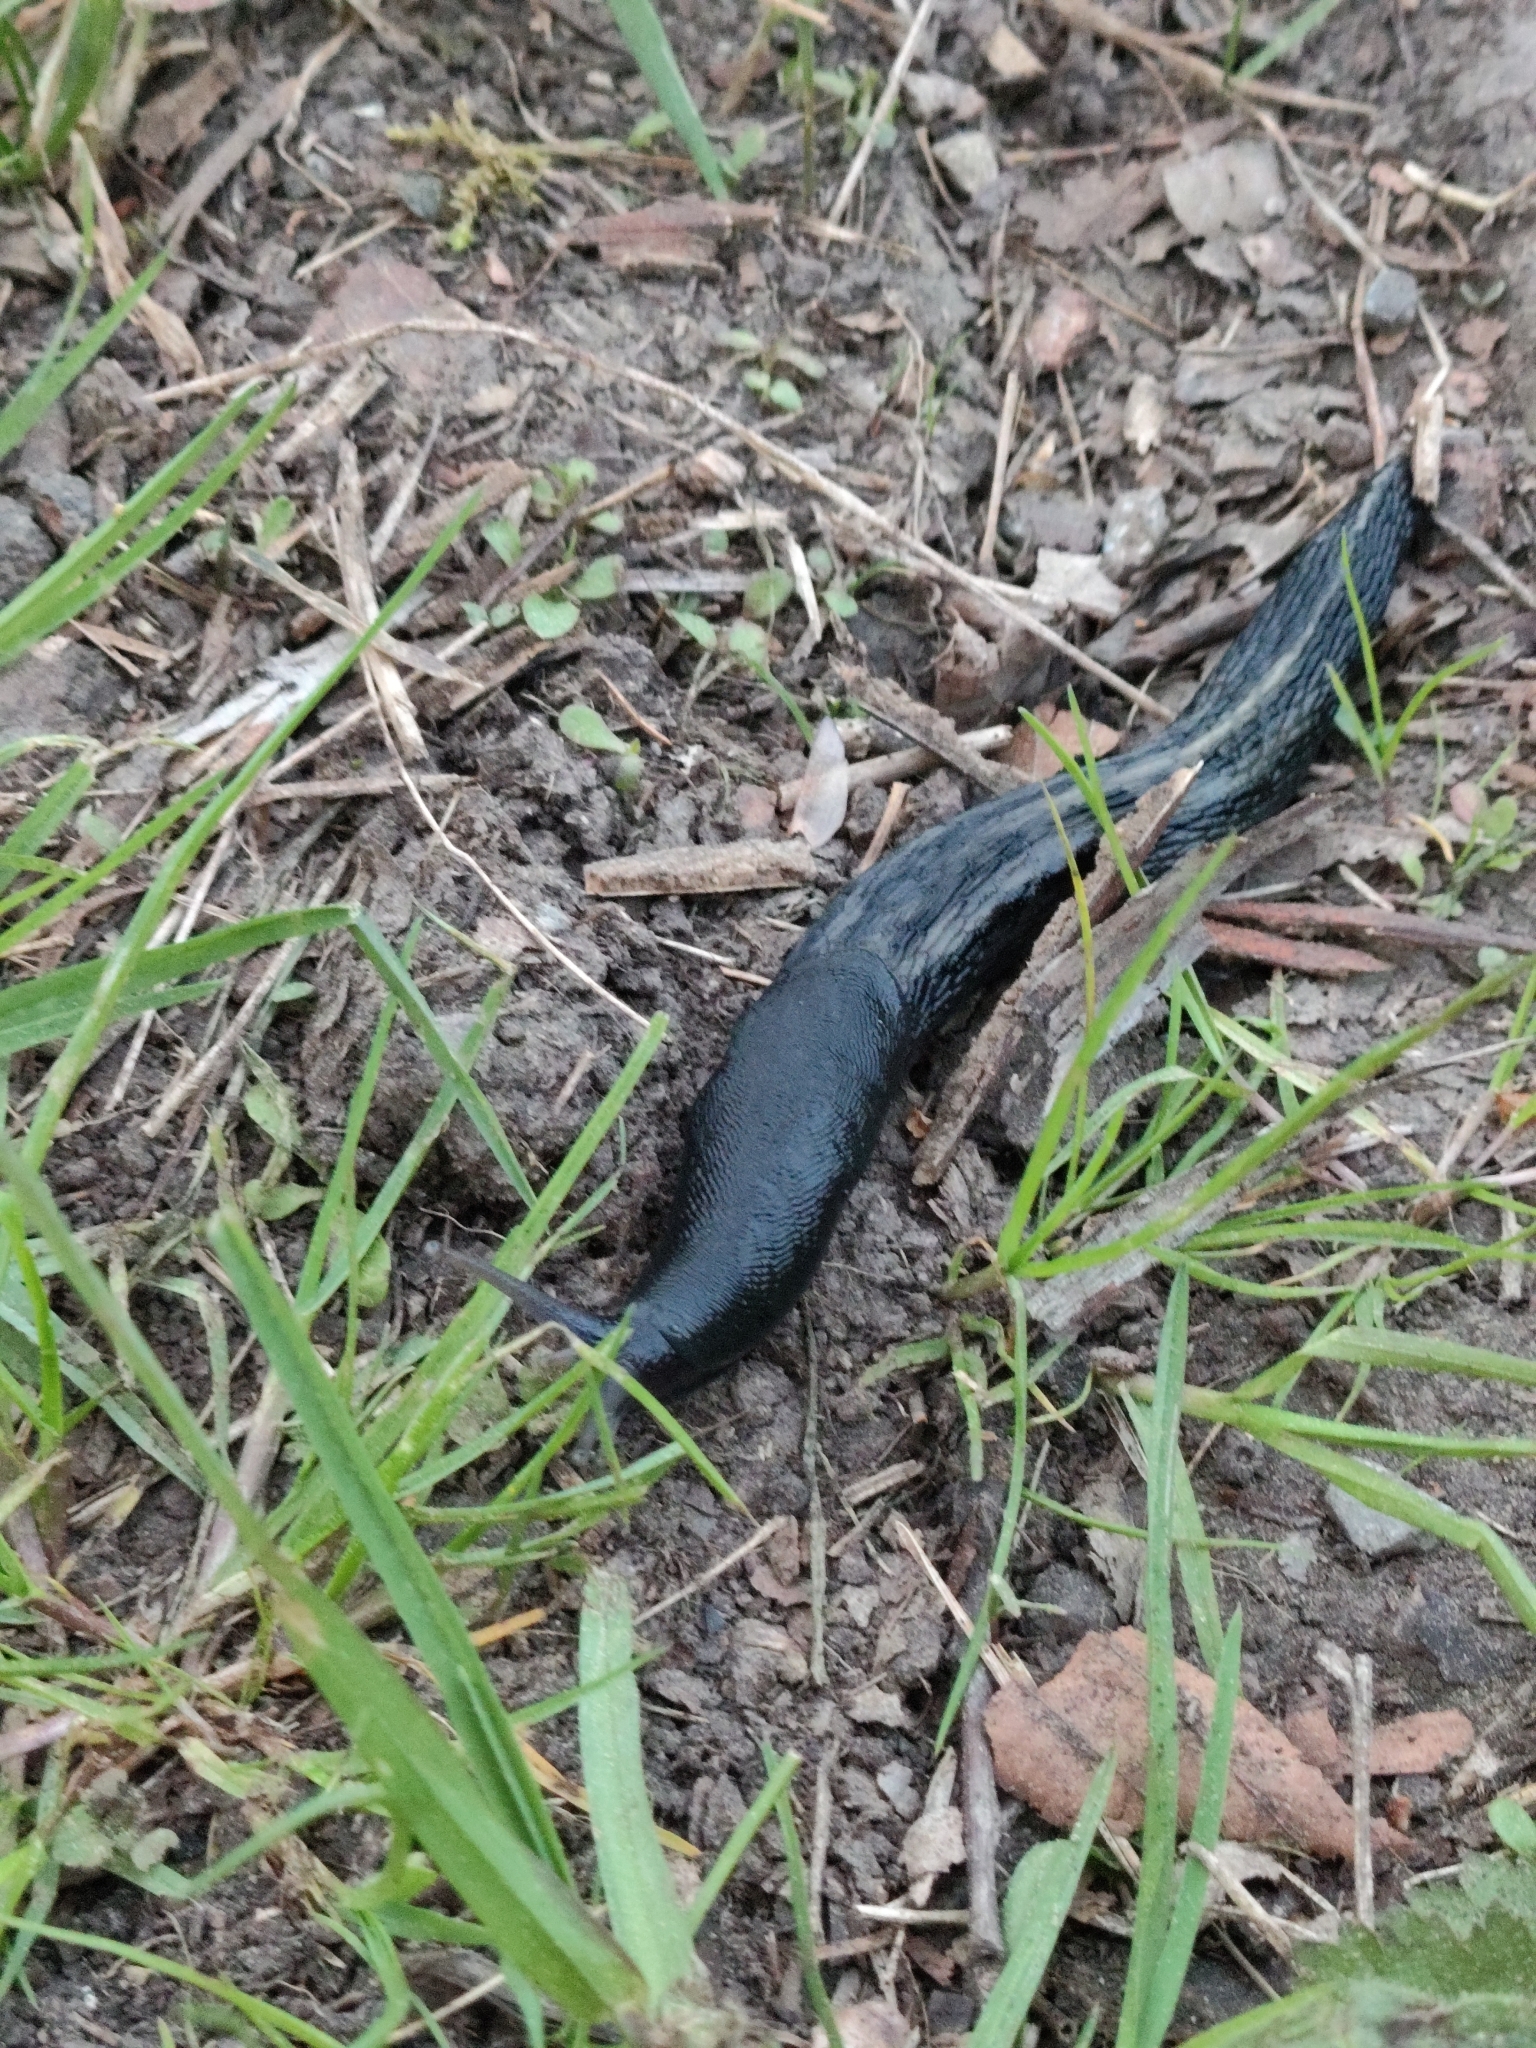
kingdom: Animalia
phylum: Mollusca
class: Gastropoda
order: Stylommatophora
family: Limacidae
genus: Limax
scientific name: Limax cinereoniger
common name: Ash-black slug
